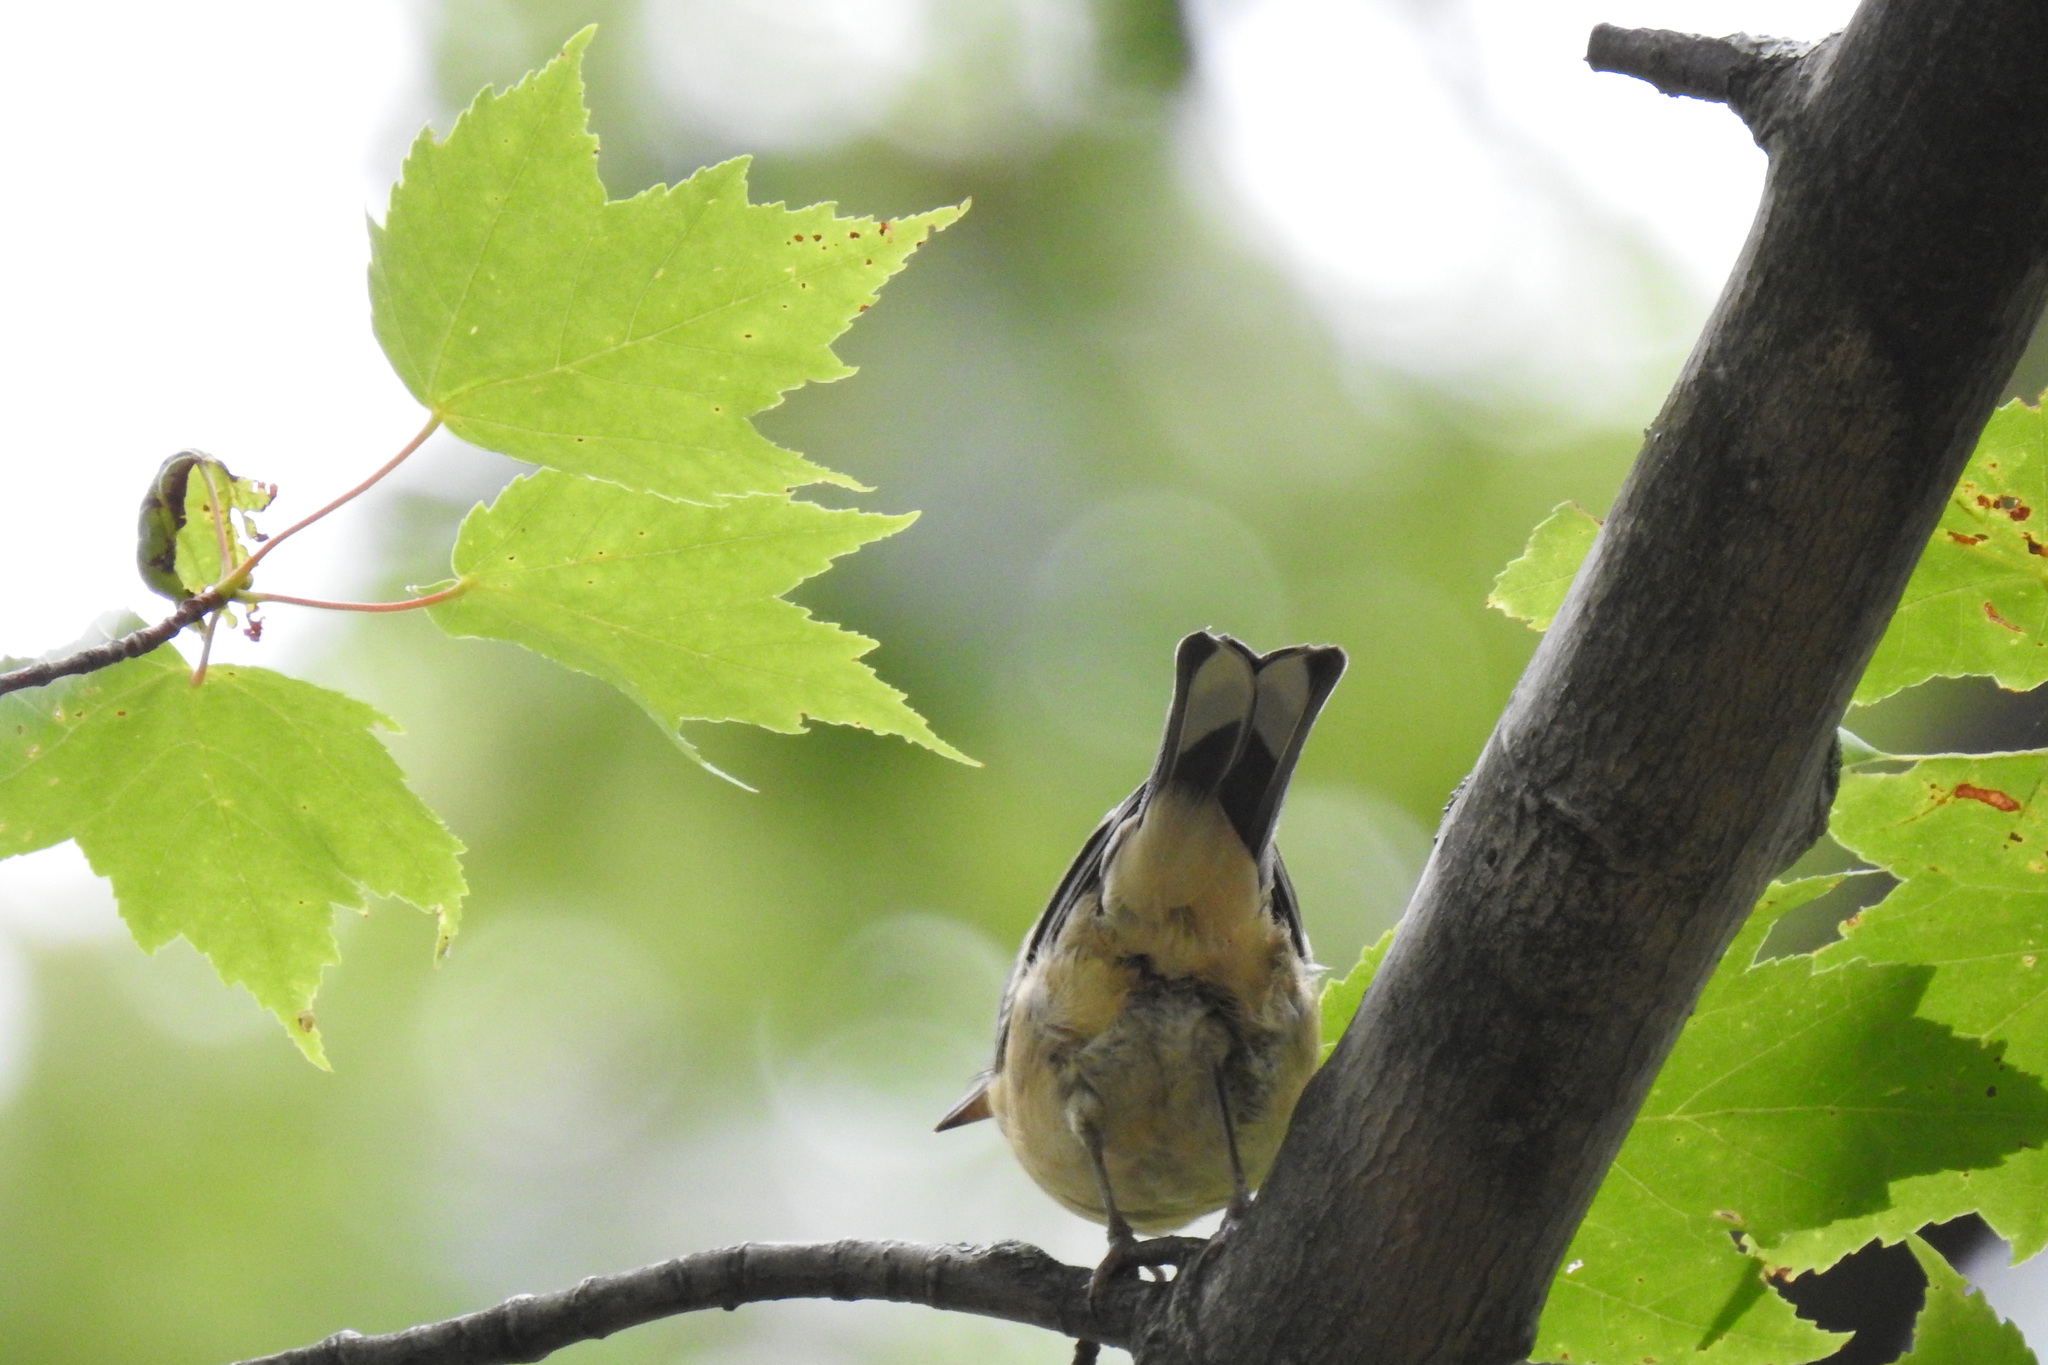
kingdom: Animalia
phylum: Chordata
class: Aves
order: Passeriformes
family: Parulidae
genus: Setophaga
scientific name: Setophaga castanea
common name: Bay-breasted warbler
